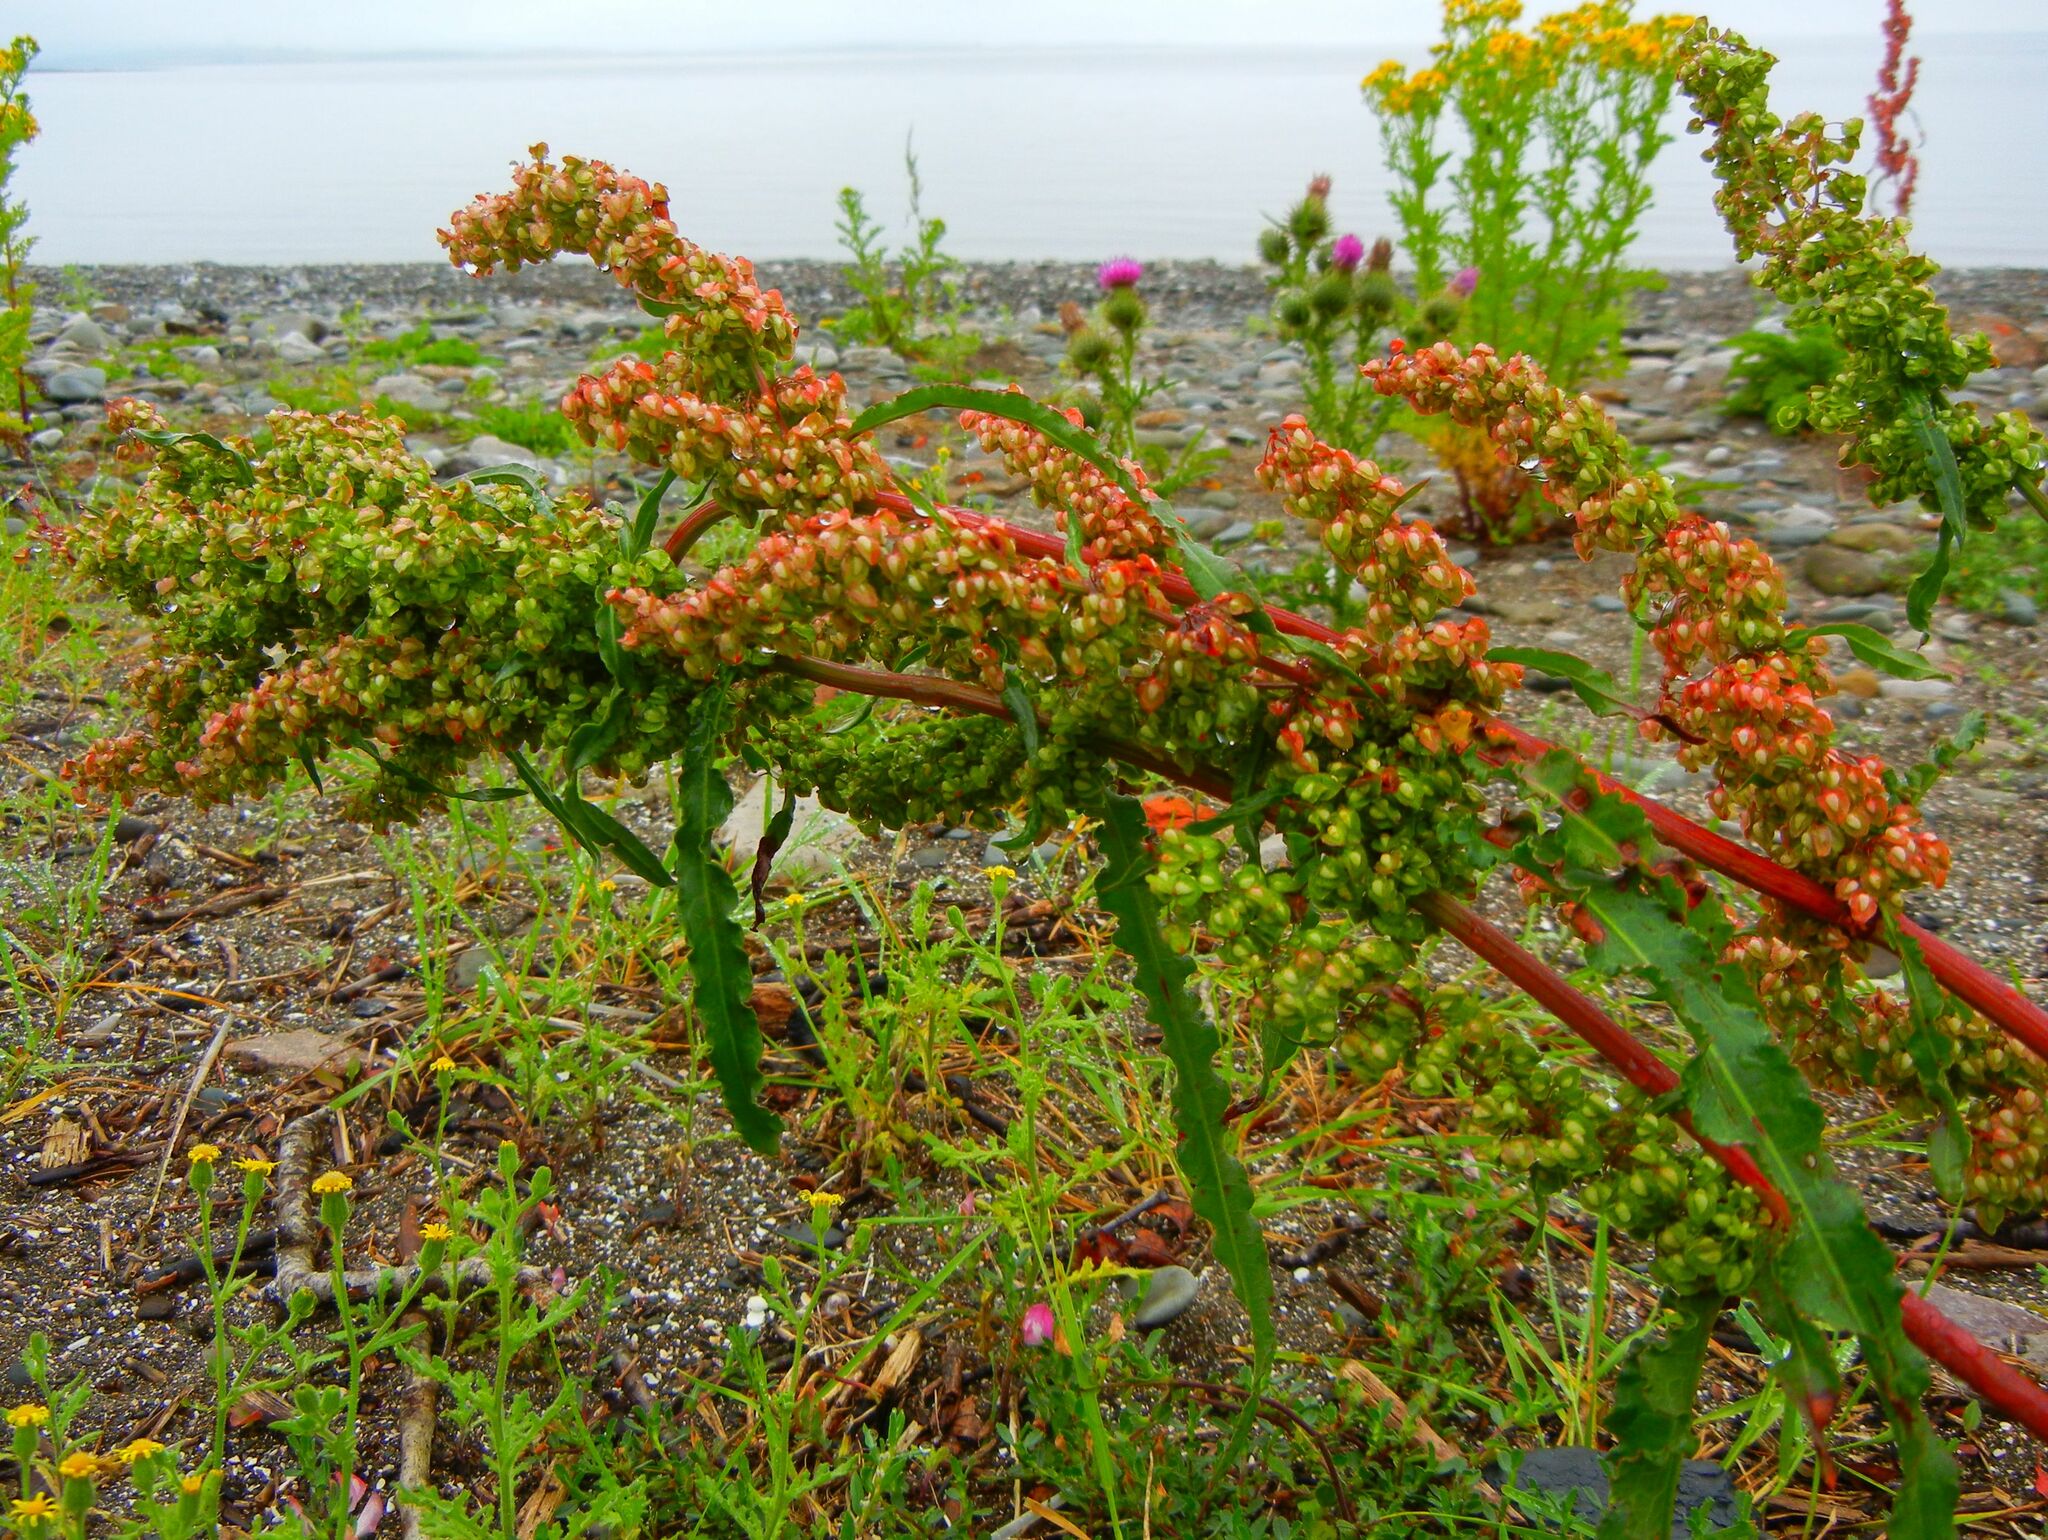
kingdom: Plantae
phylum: Tracheophyta
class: Magnoliopsida
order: Caryophyllales
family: Polygonaceae
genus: Rumex
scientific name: Rumex crispus
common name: Curled dock
